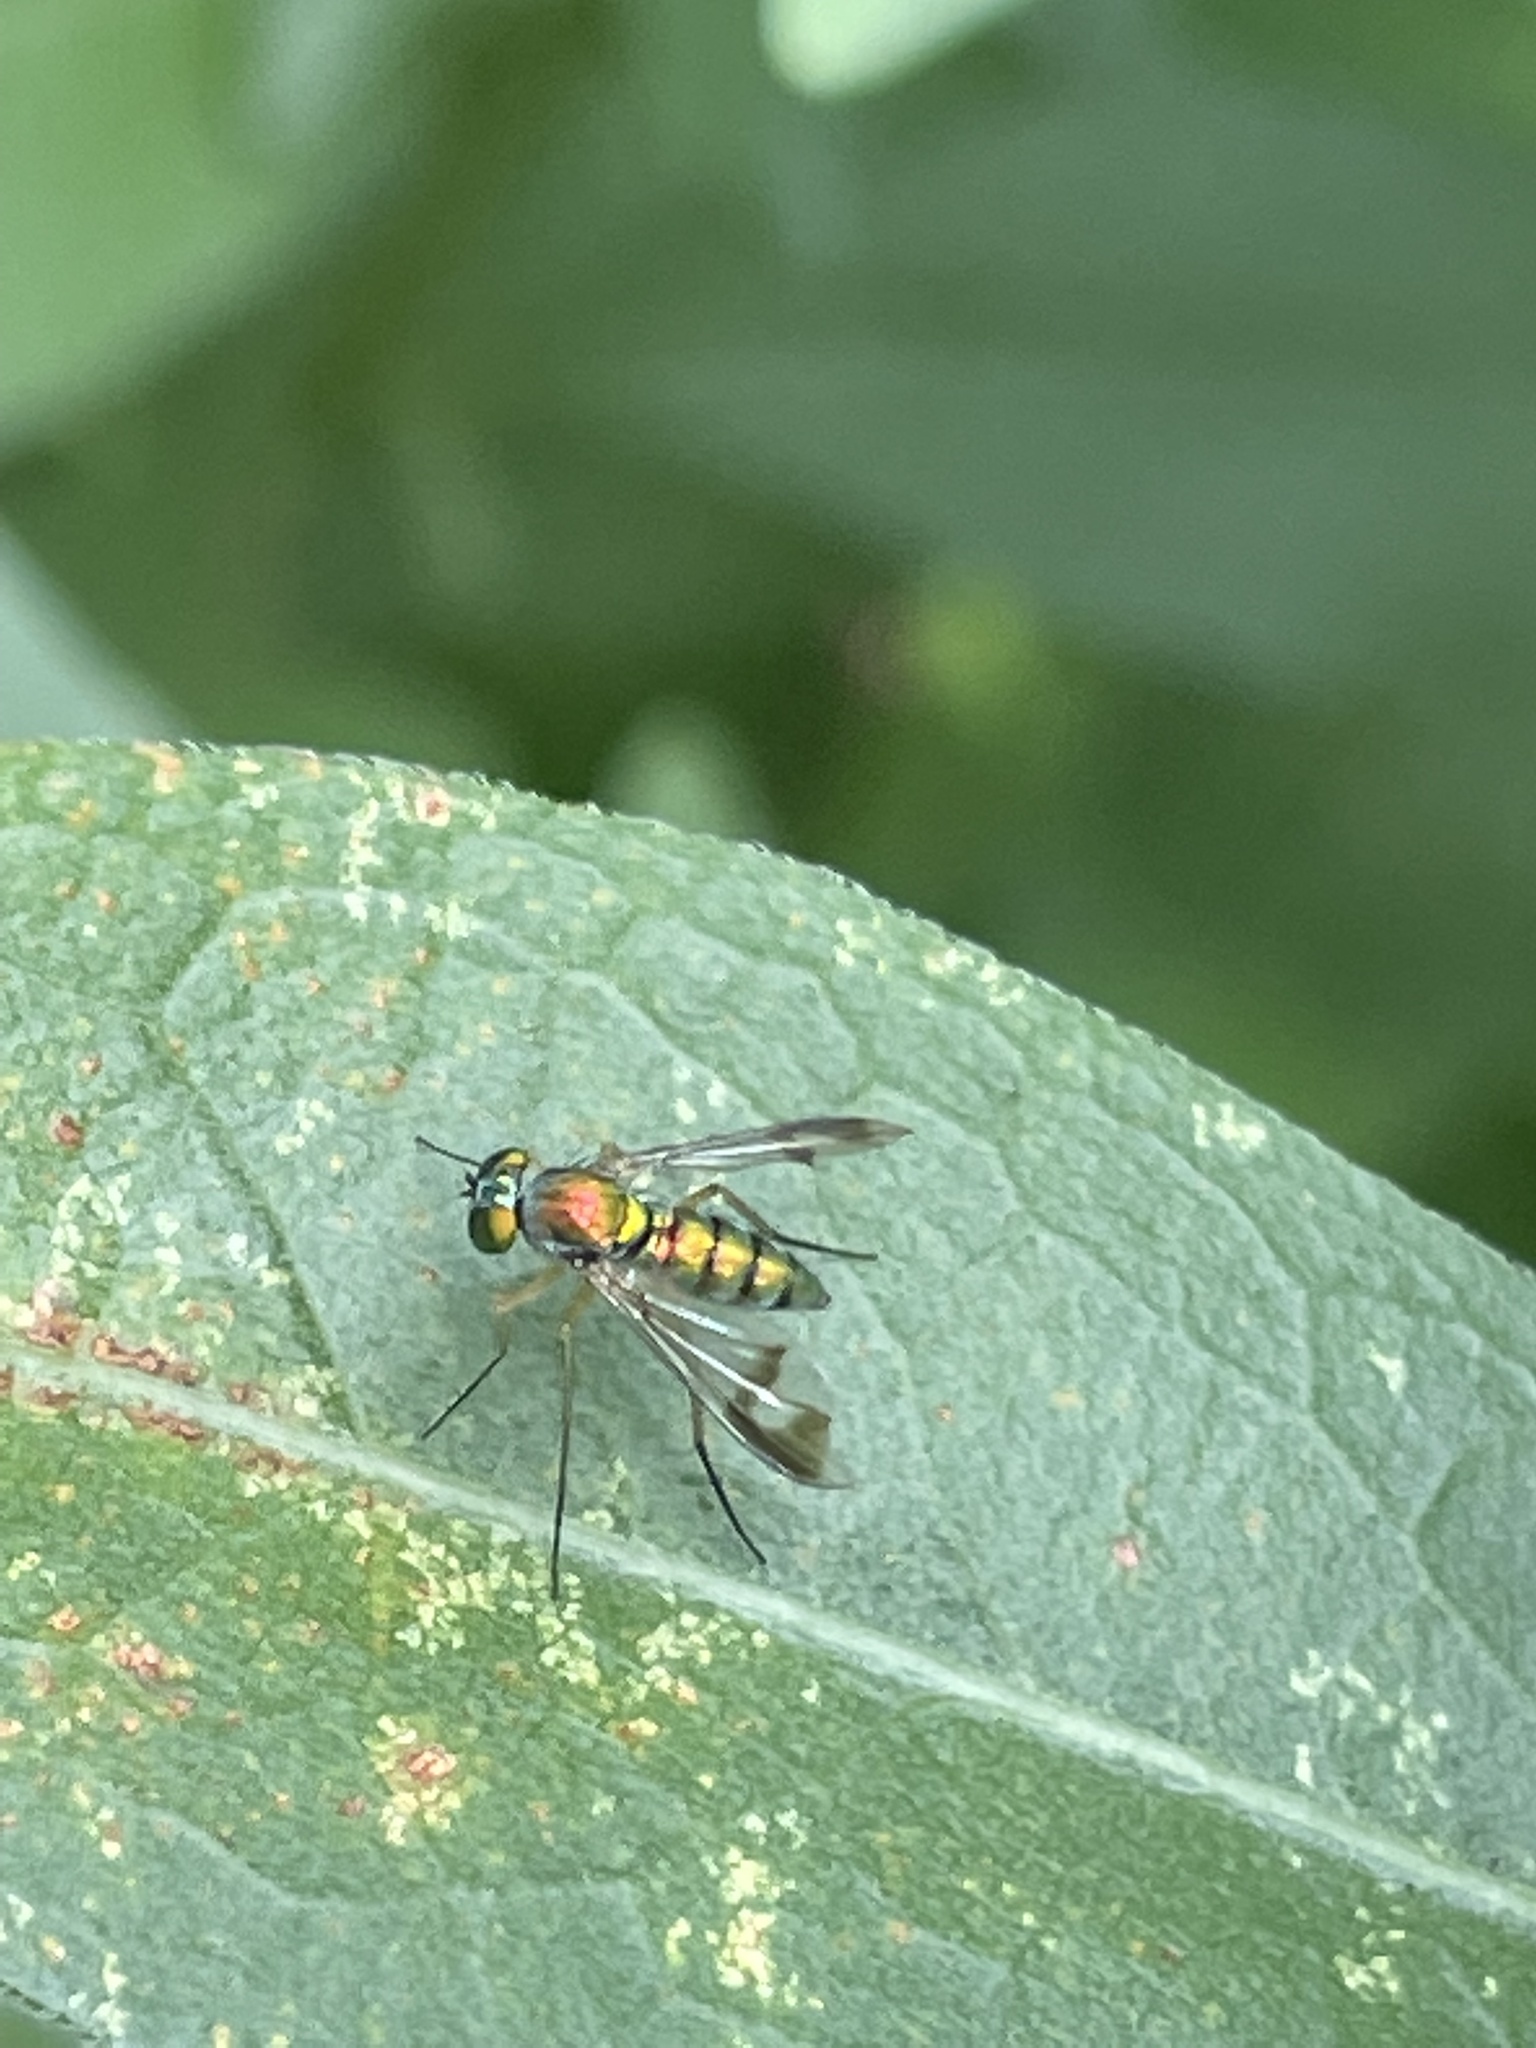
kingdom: Animalia
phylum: Arthropoda
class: Insecta
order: Diptera
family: Dolichopodidae
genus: Condylostylus
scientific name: Condylostylus
